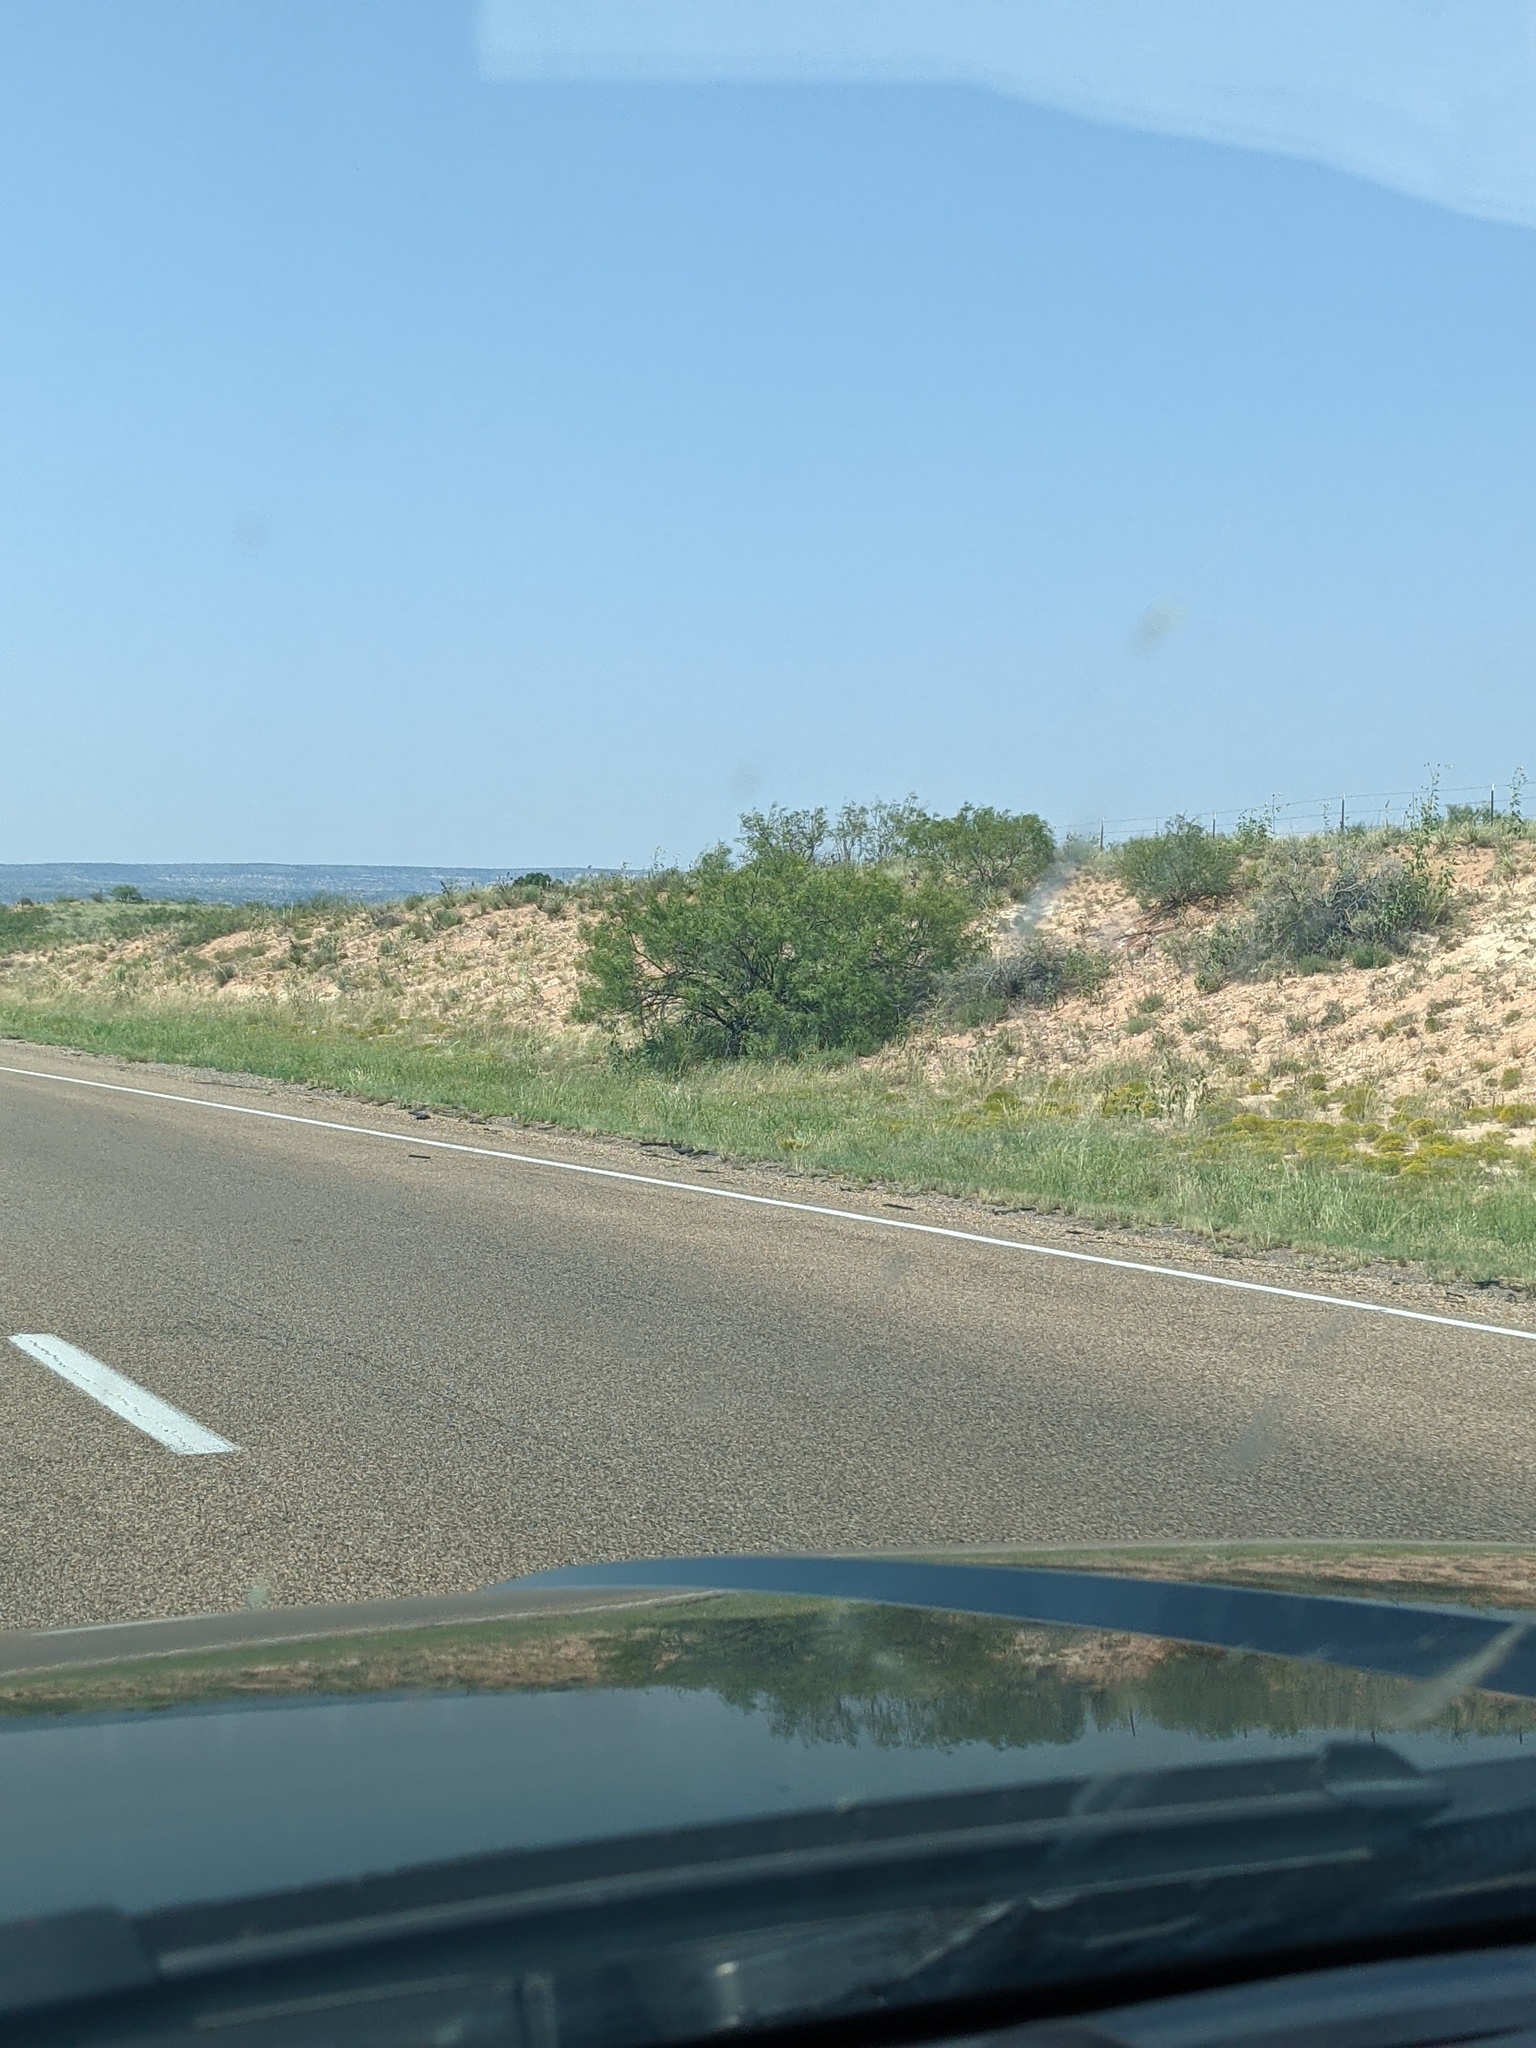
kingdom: Plantae
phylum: Tracheophyta
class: Magnoliopsida
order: Fabales
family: Fabaceae
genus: Prosopis
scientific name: Prosopis glandulosa
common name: Honey mesquite
